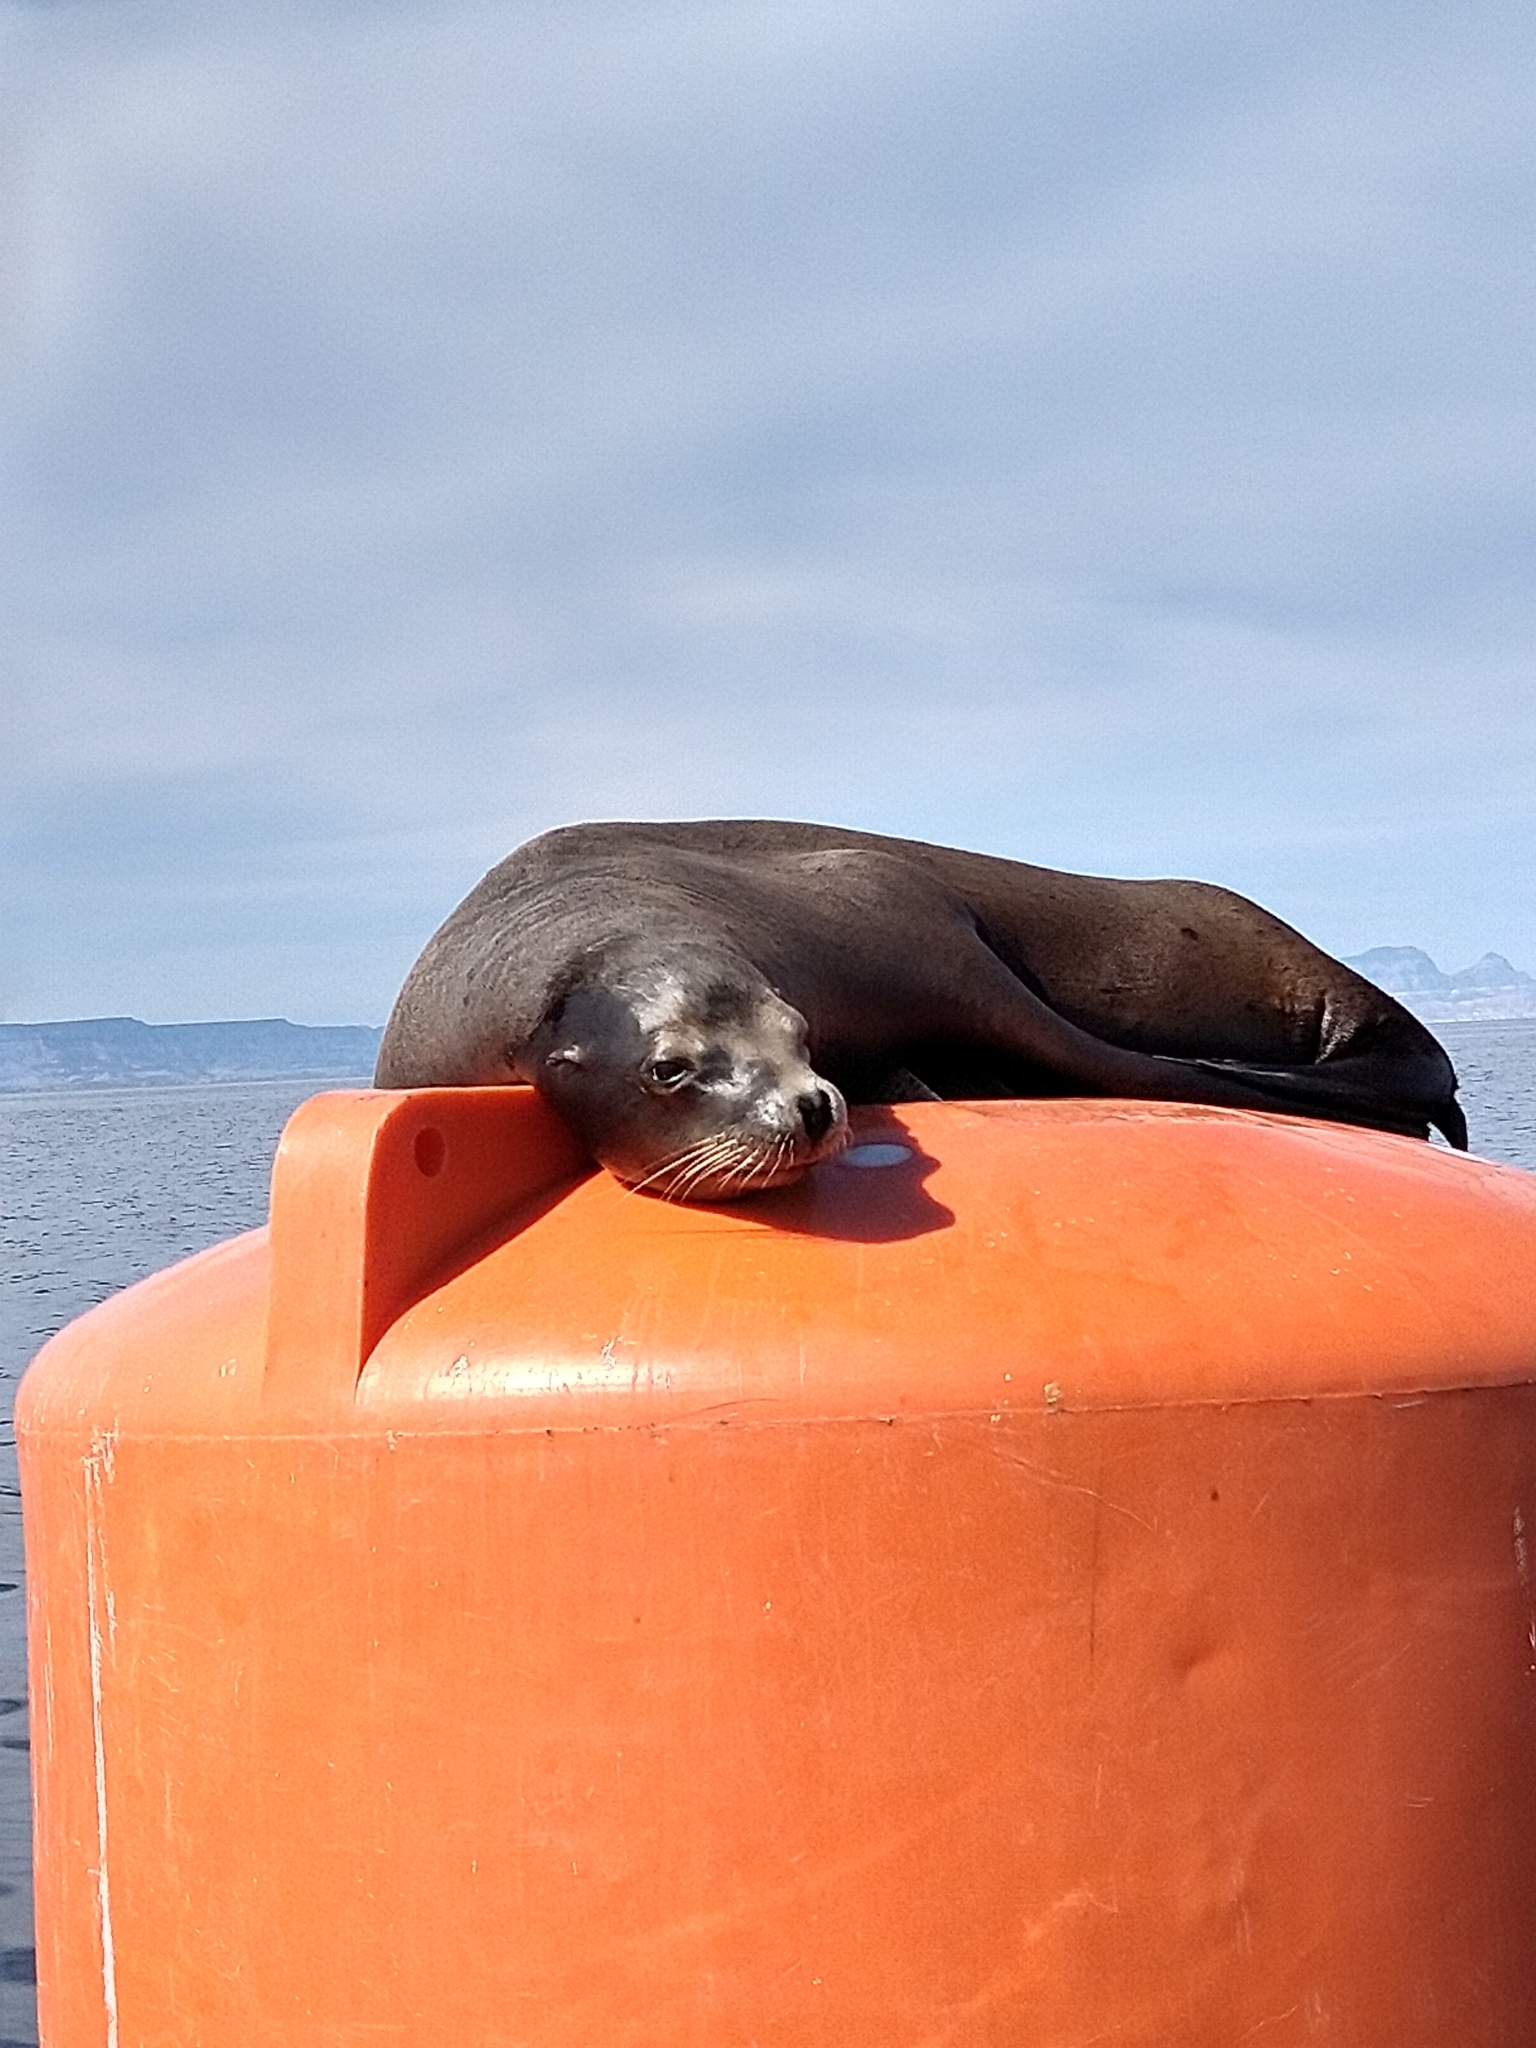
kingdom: Animalia
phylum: Chordata
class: Mammalia
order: Carnivora
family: Otariidae
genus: Zalophus
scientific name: Zalophus californianus
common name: California sea lion
